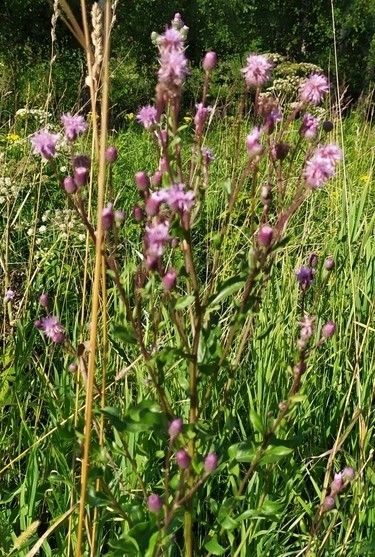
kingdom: Plantae
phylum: Tracheophyta
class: Magnoliopsida
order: Asterales
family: Asteraceae
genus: Cirsium
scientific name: Cirsium arvense
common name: Creeping thistle
